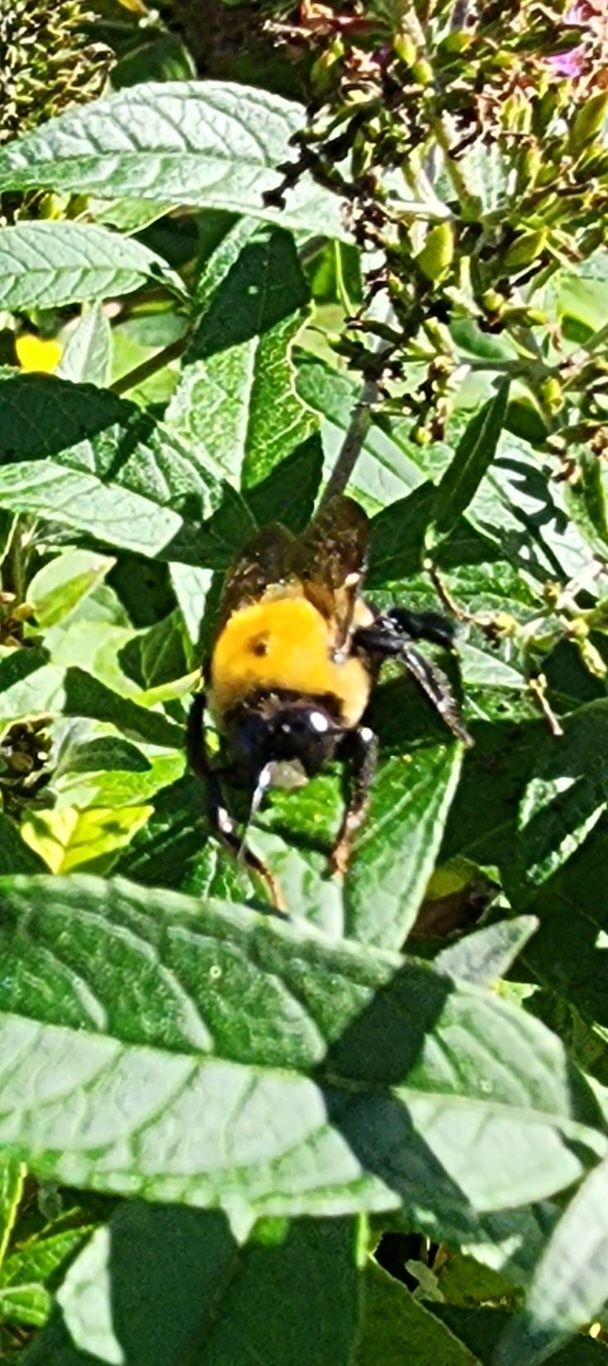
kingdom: Animalia
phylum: Arthropoda
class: Insecta
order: Hymenoptera
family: Apidae
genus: Xylocopa
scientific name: Xylocopa virginica
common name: Carpenter bee
